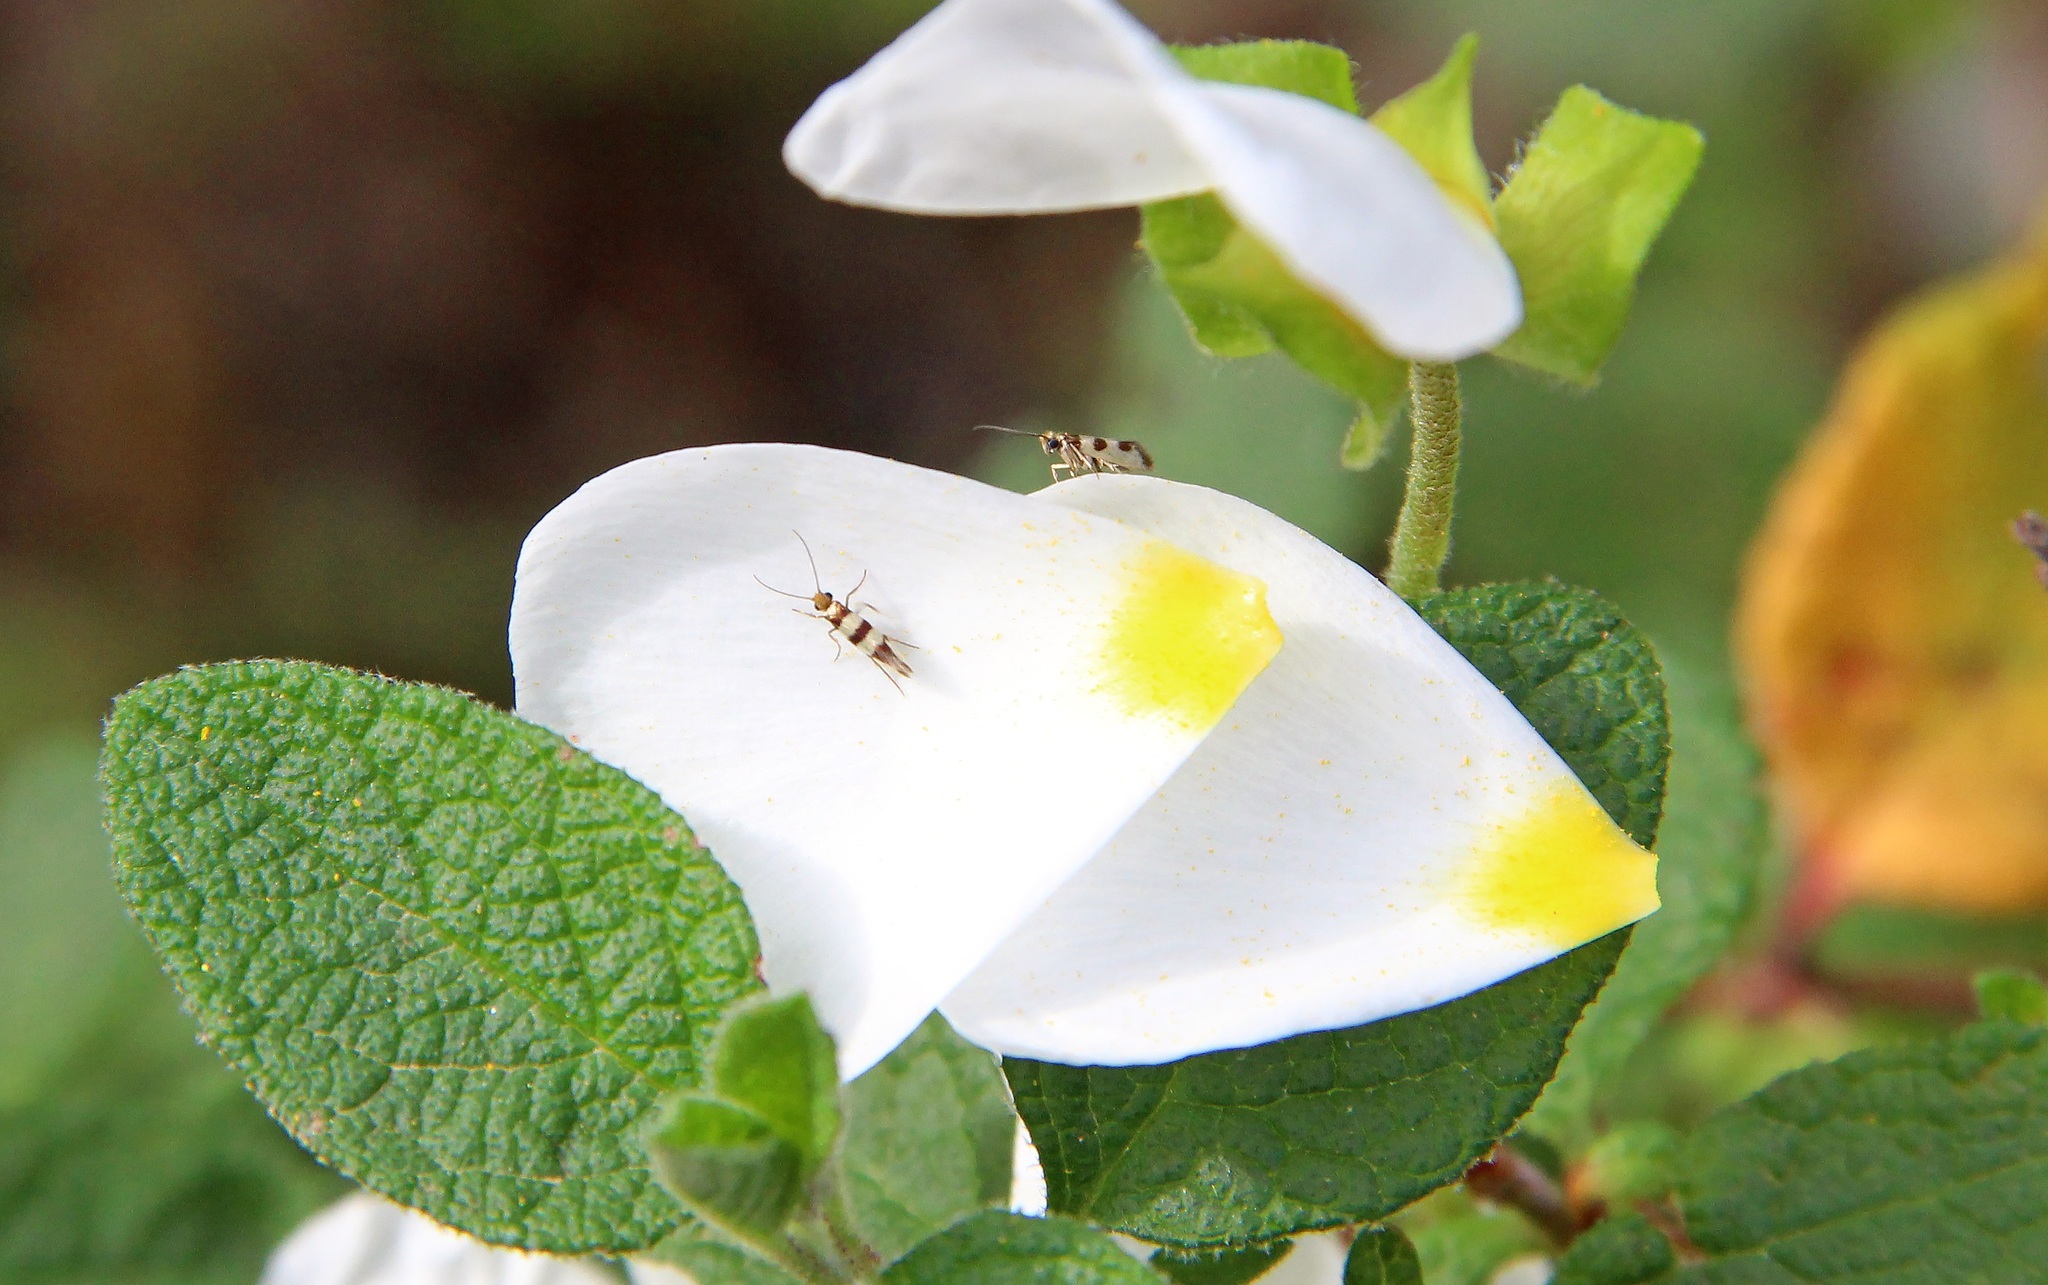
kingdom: Animalia
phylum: Arthropoda
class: Insecta
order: Lepidoptera
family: Micropterigidae
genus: Micropterix
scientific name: Micropterix completella
